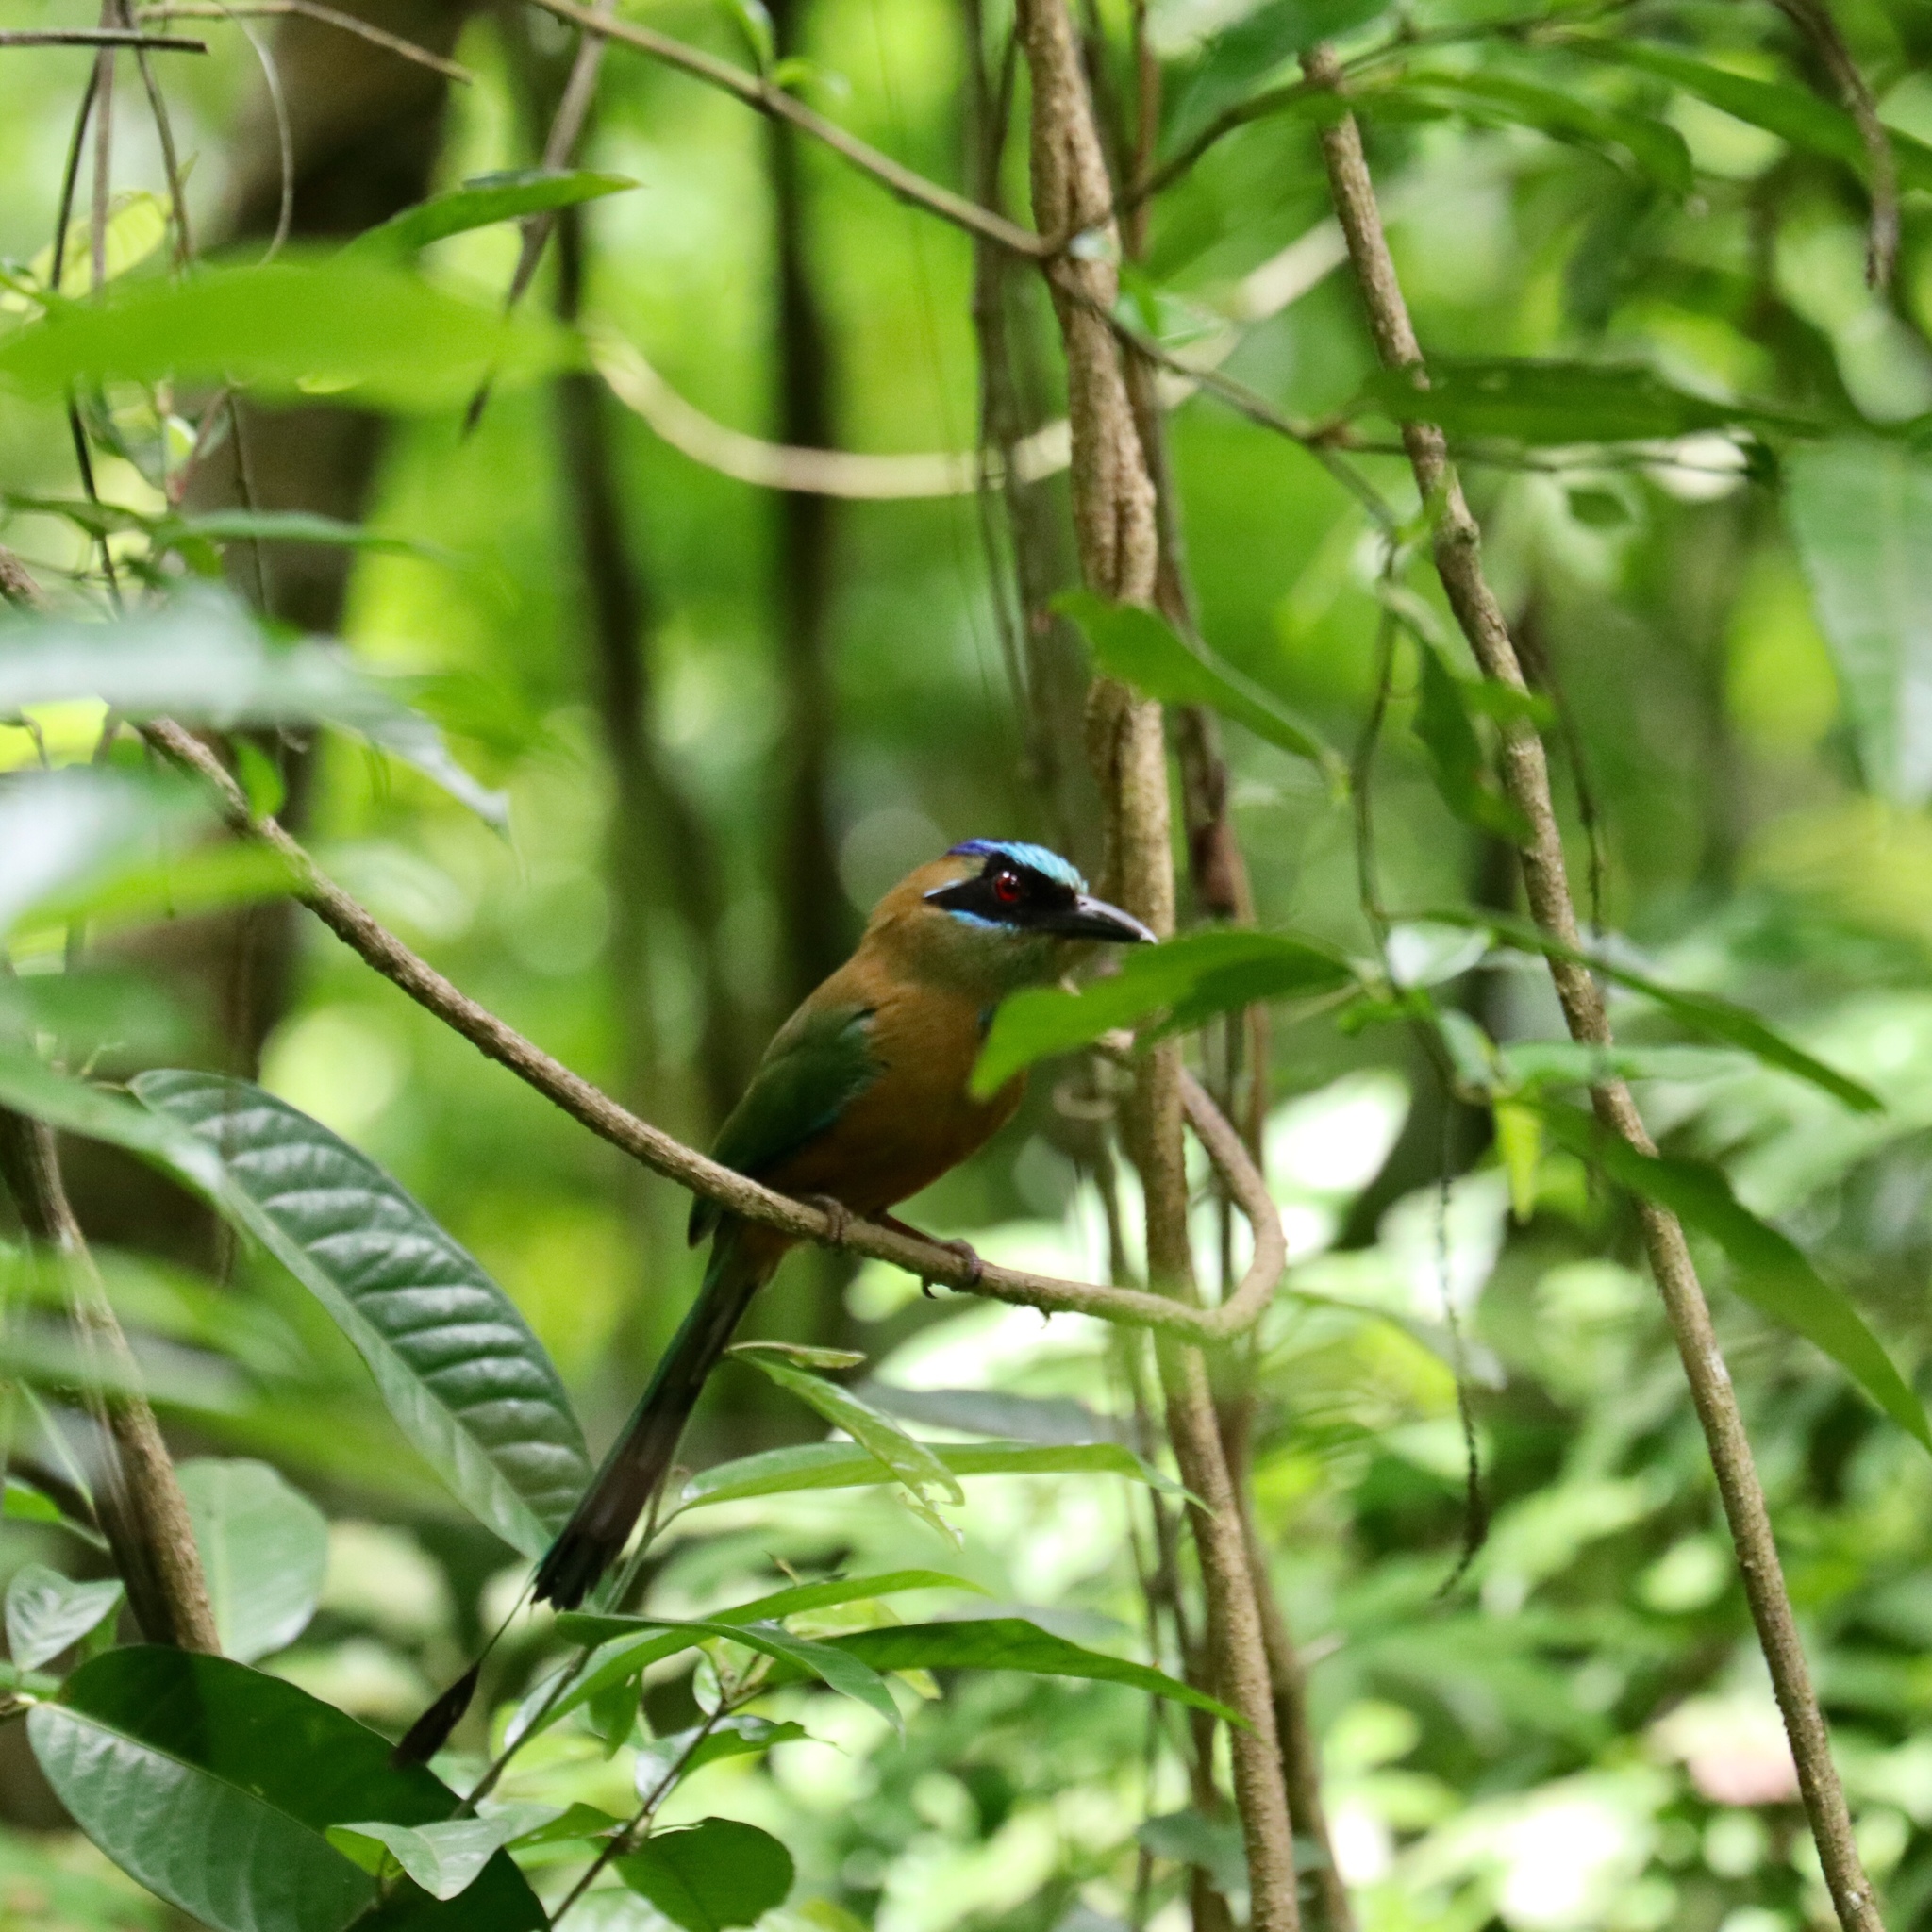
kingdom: Animalia
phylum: Chordata
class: Aves
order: Coraciiformes
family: Momotidae
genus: Momotus
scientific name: Momotus subrufescens
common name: Whooping motmot
